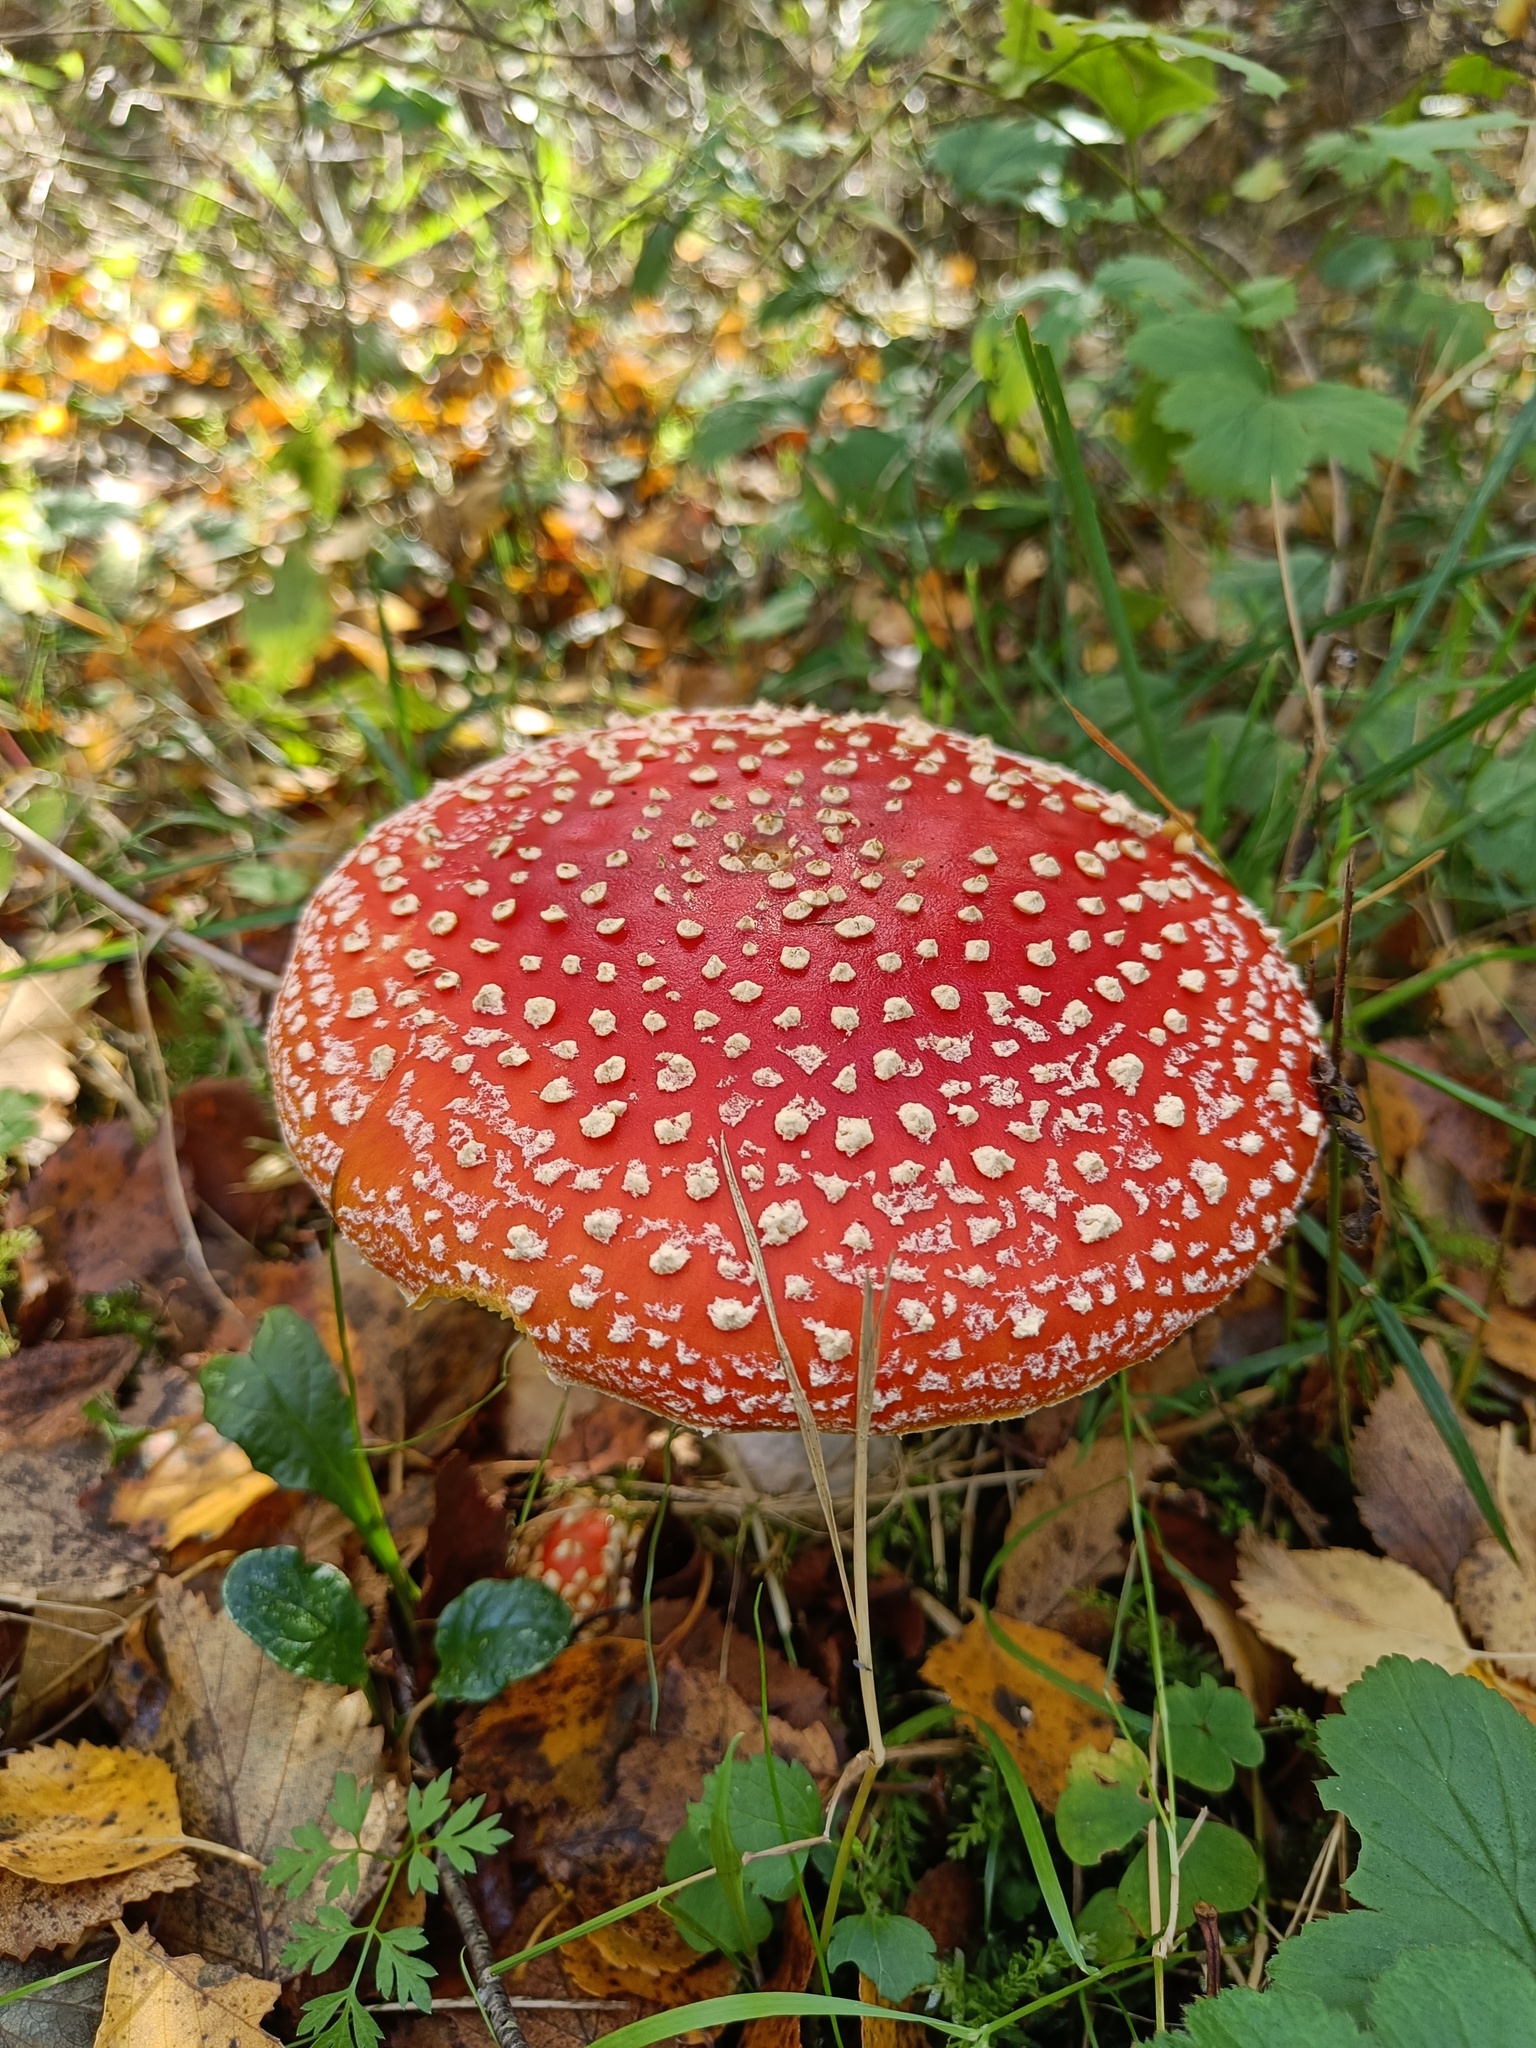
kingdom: Fungi
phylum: Basidiomycota
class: Agaricomycetes
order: Agaricales
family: Amanitaceae
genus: Amanita
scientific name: Amanita muscaria
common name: Fly agaric
